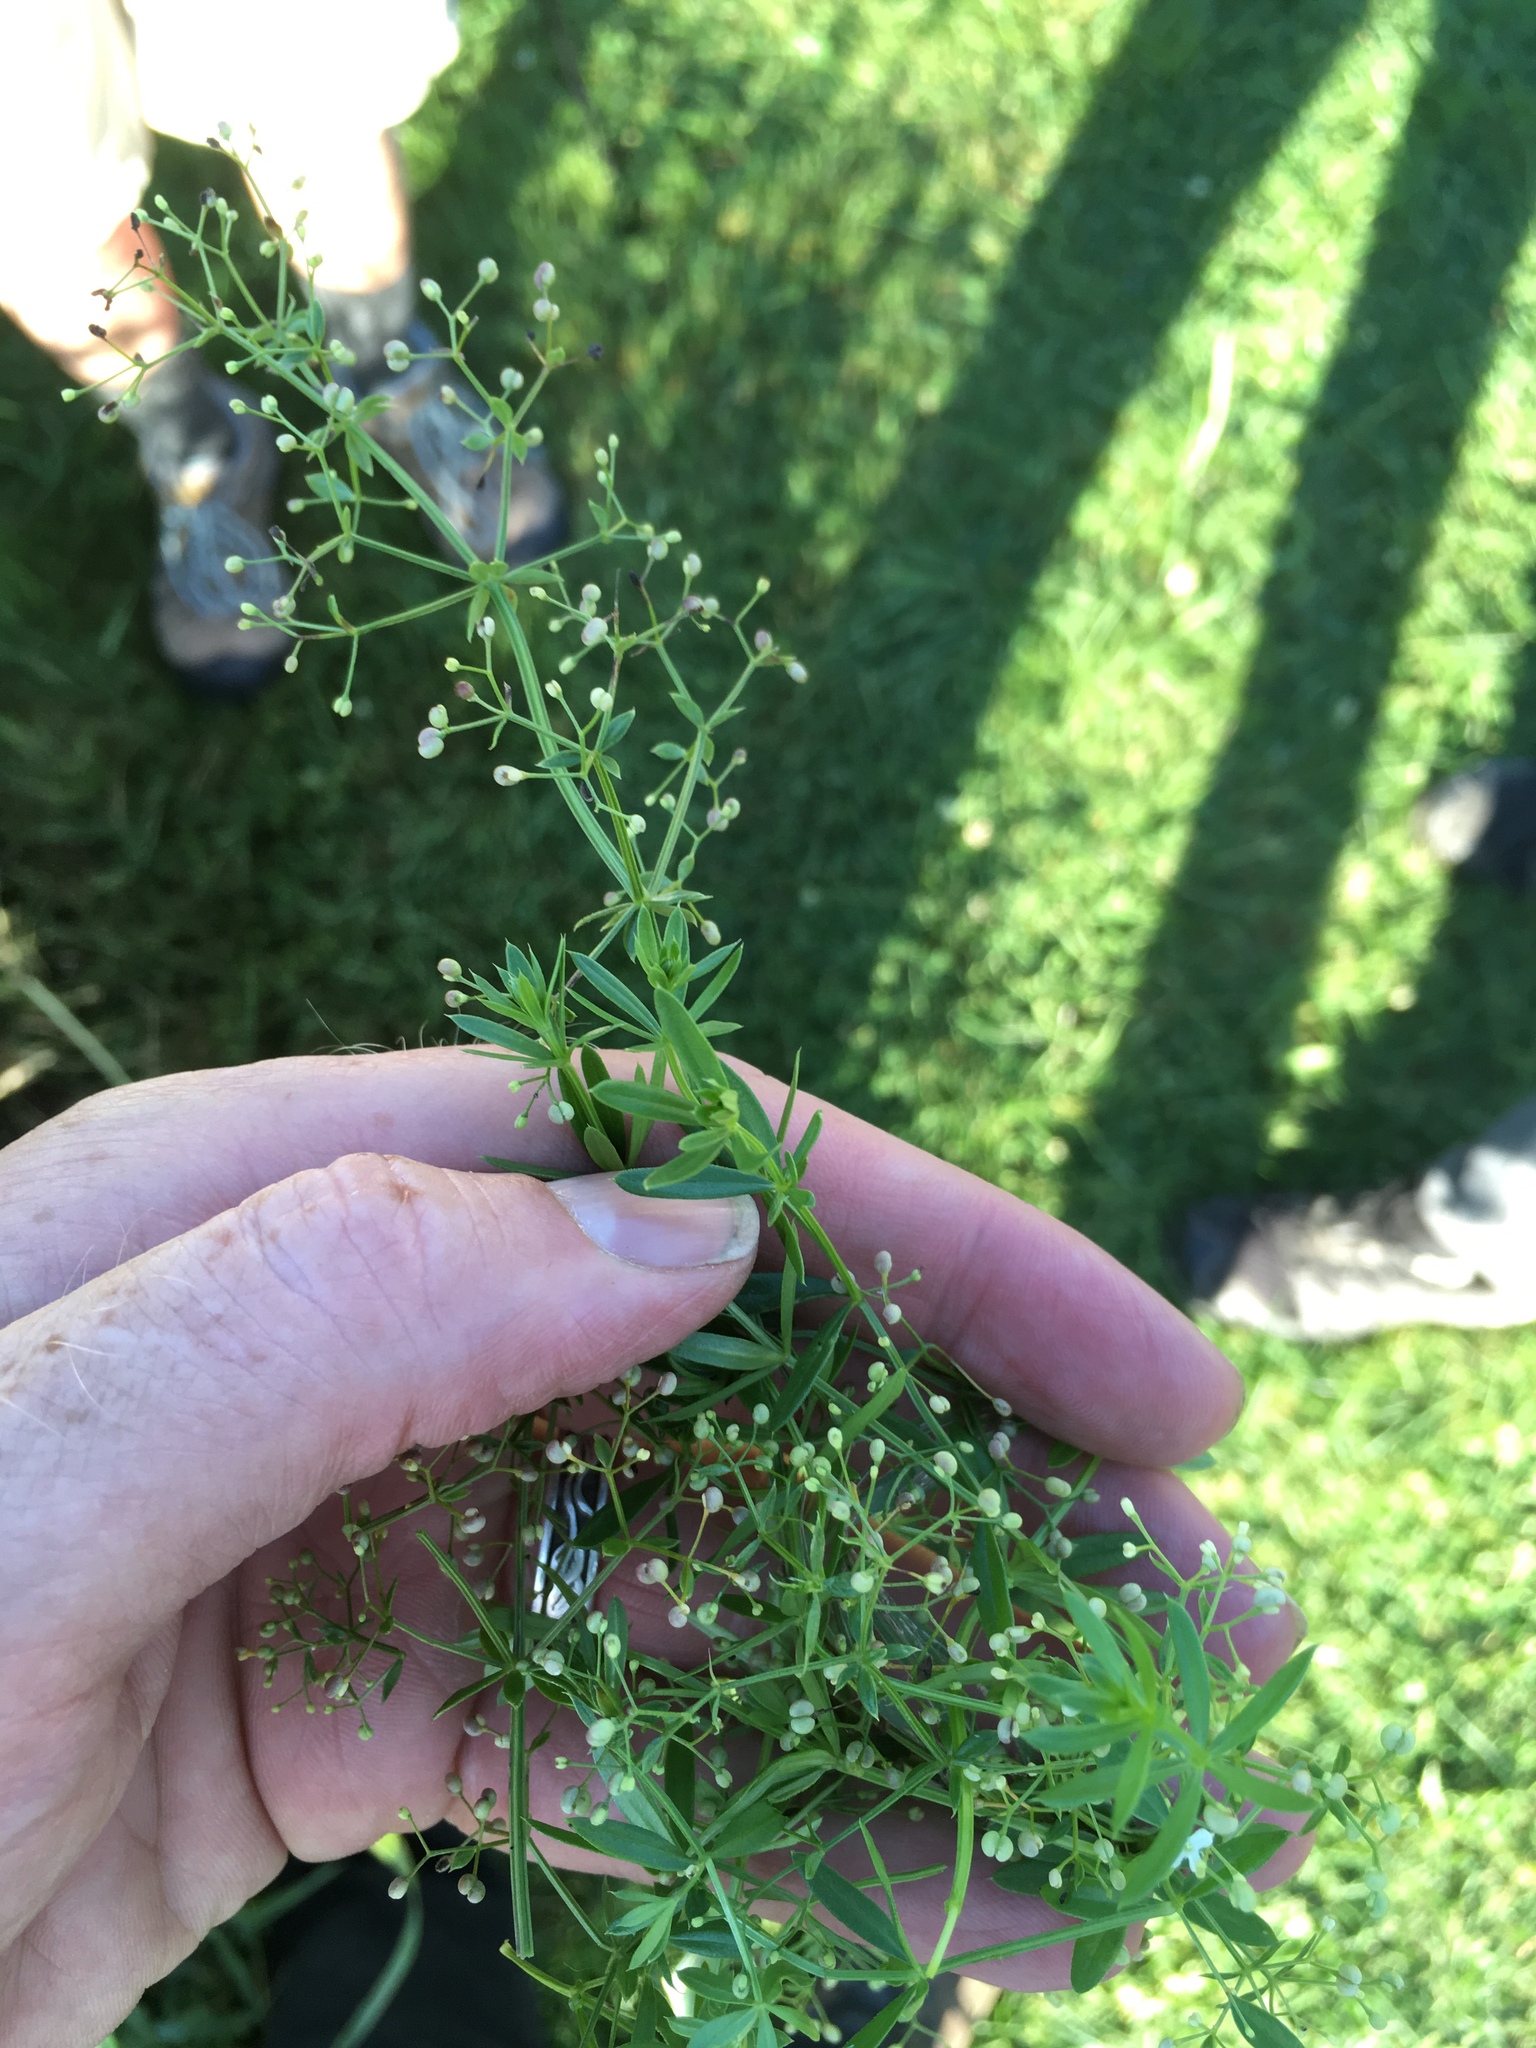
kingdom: Plantae
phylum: Tracheophyta
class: Magnoliopsida
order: Gentianales
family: Rubiaceae
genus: Galium
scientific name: Galium mollugo
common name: Hedge bedstraw
